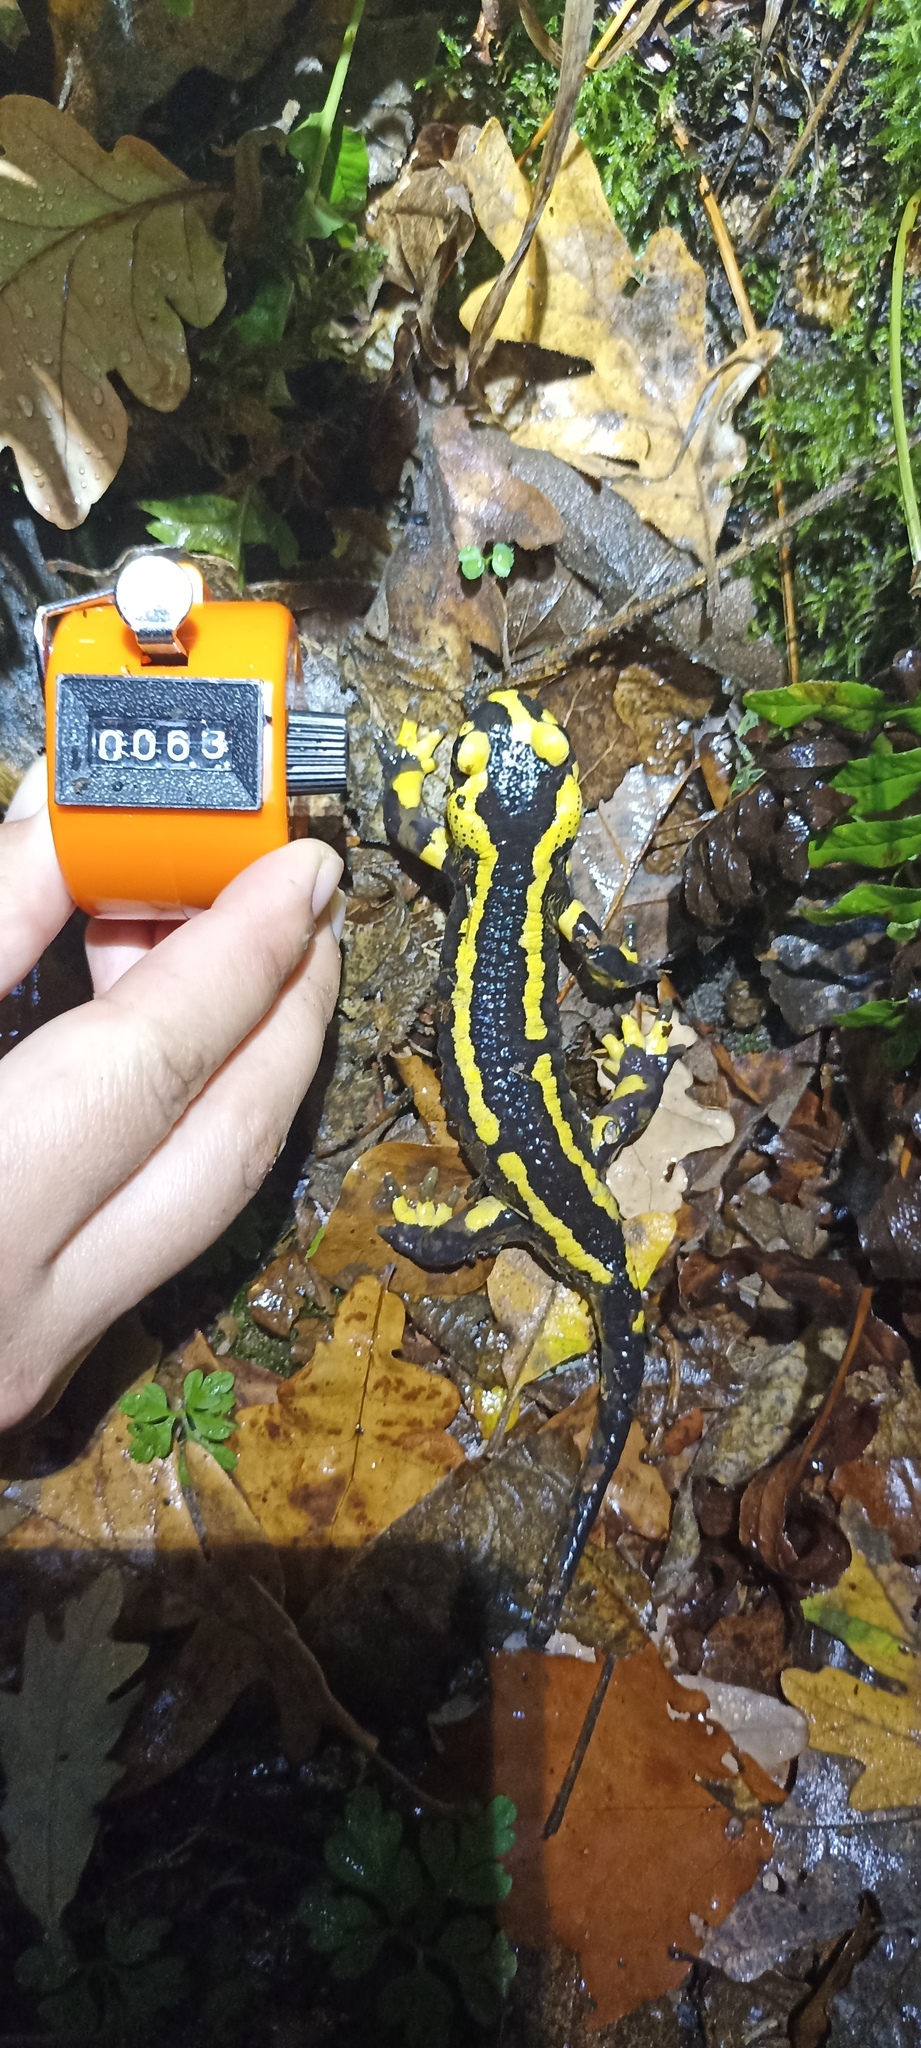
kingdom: Animalia
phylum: Chordata
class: Amphibia
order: Caudata
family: Salamandridae
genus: Salamandra
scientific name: Salamandra salamandra
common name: Fire salamander
